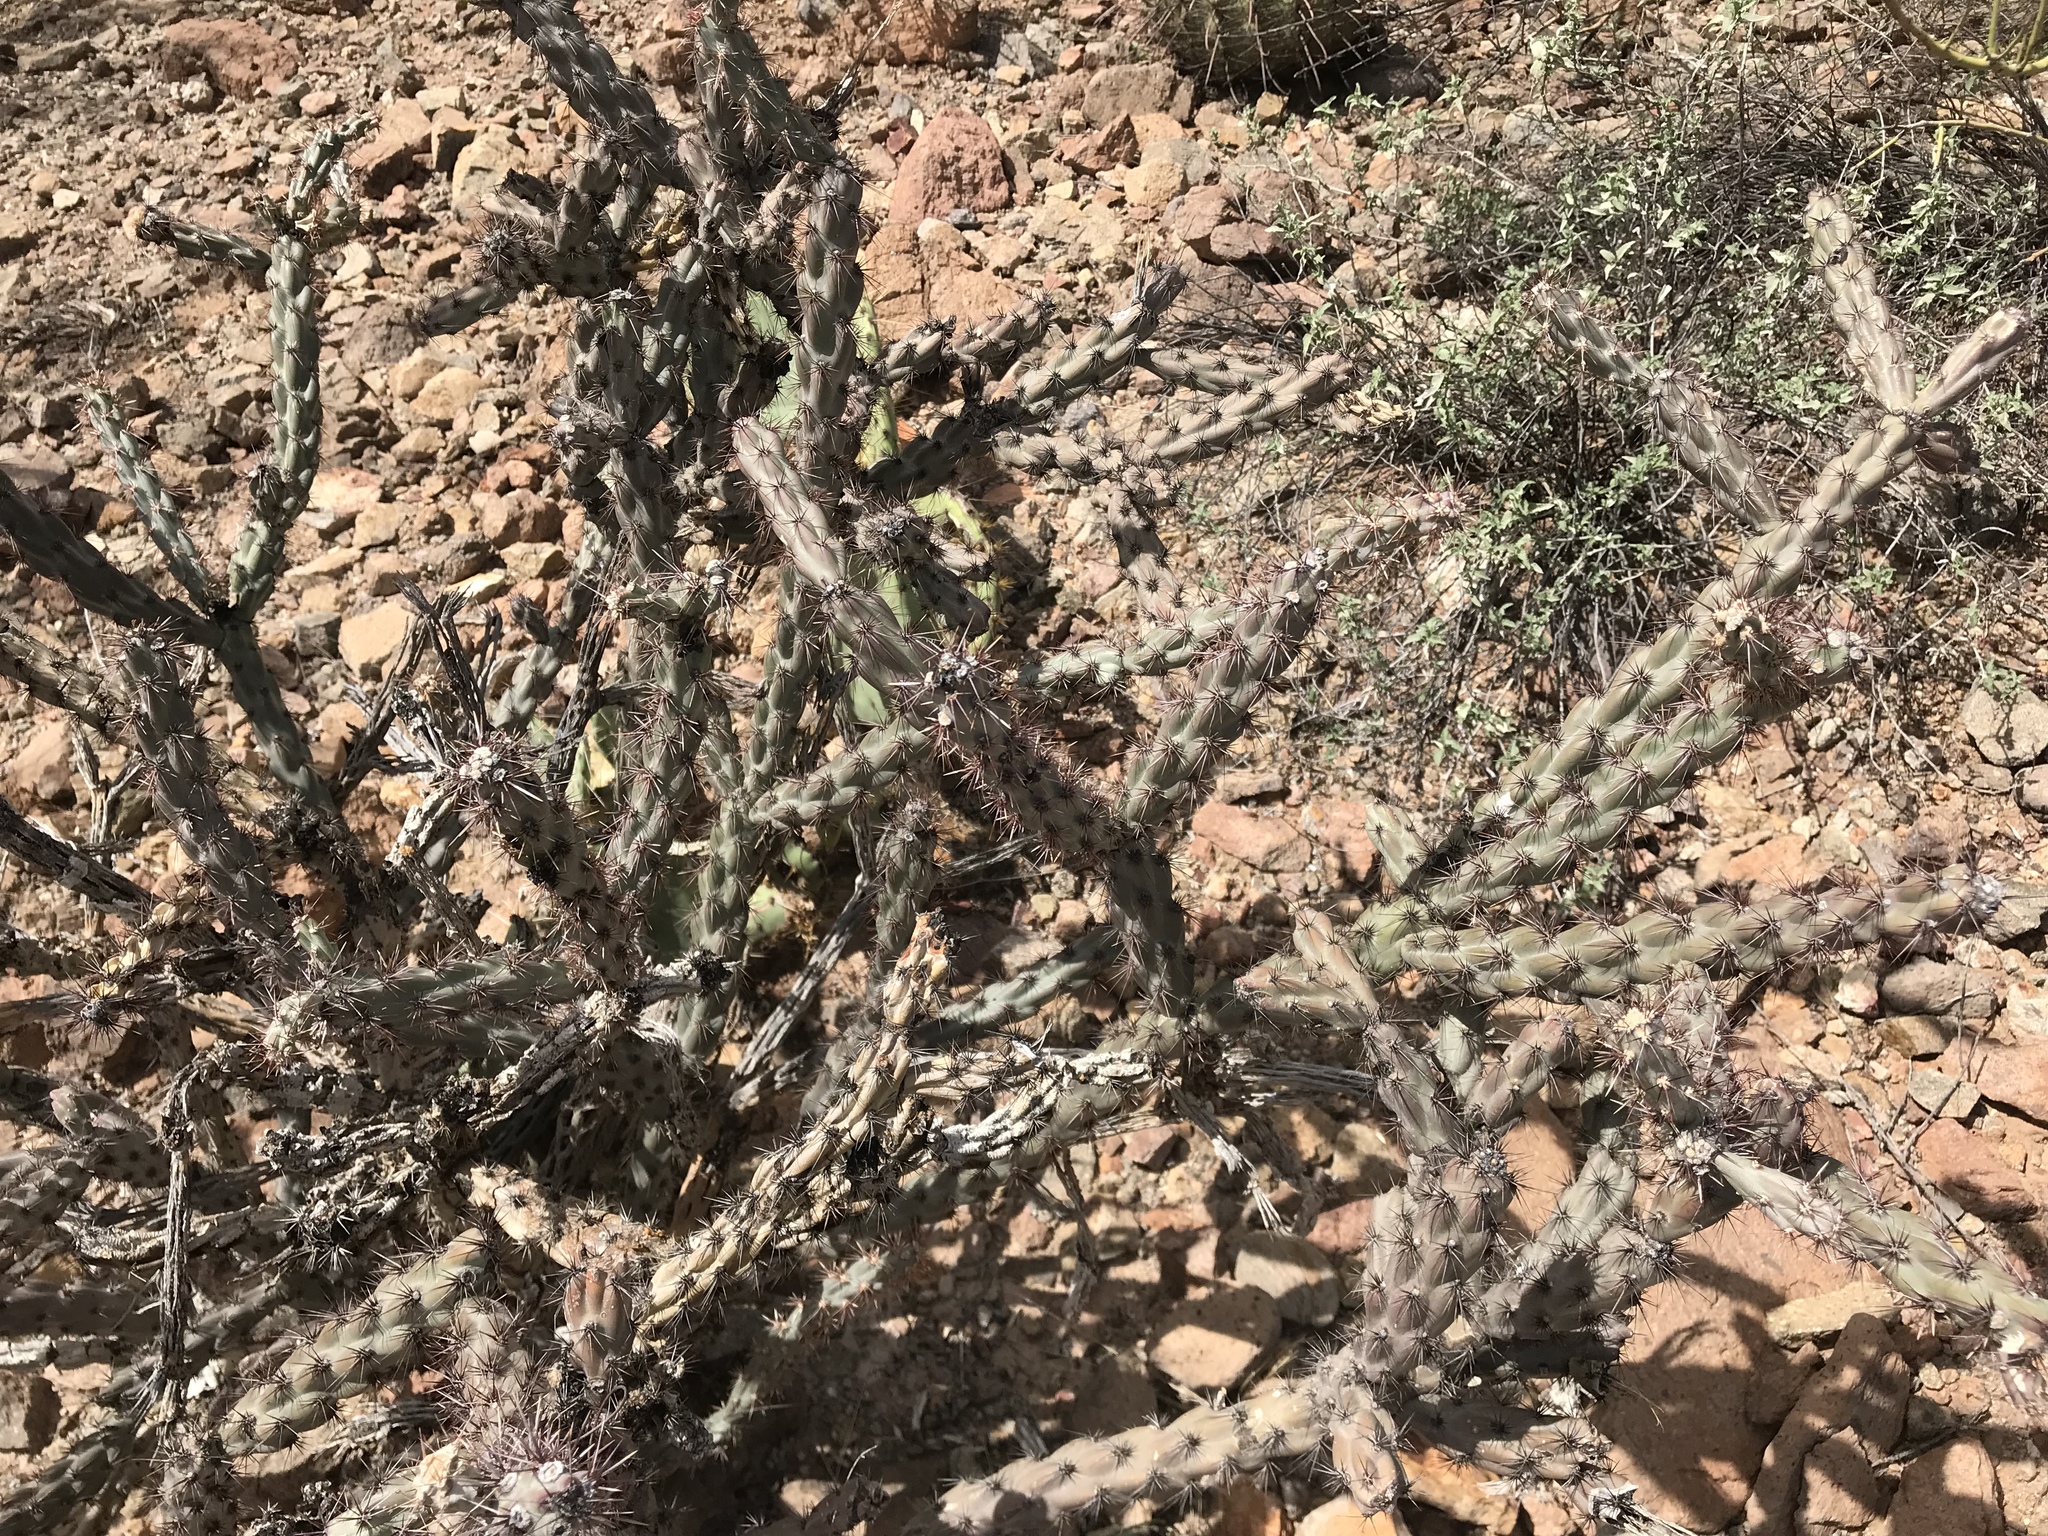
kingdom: Plantae
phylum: Tracheophyta
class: Magnoliopsida
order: Caryophyllales
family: Cactaceae
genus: Cylindropuntia
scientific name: Cylindropuntia thurberi
